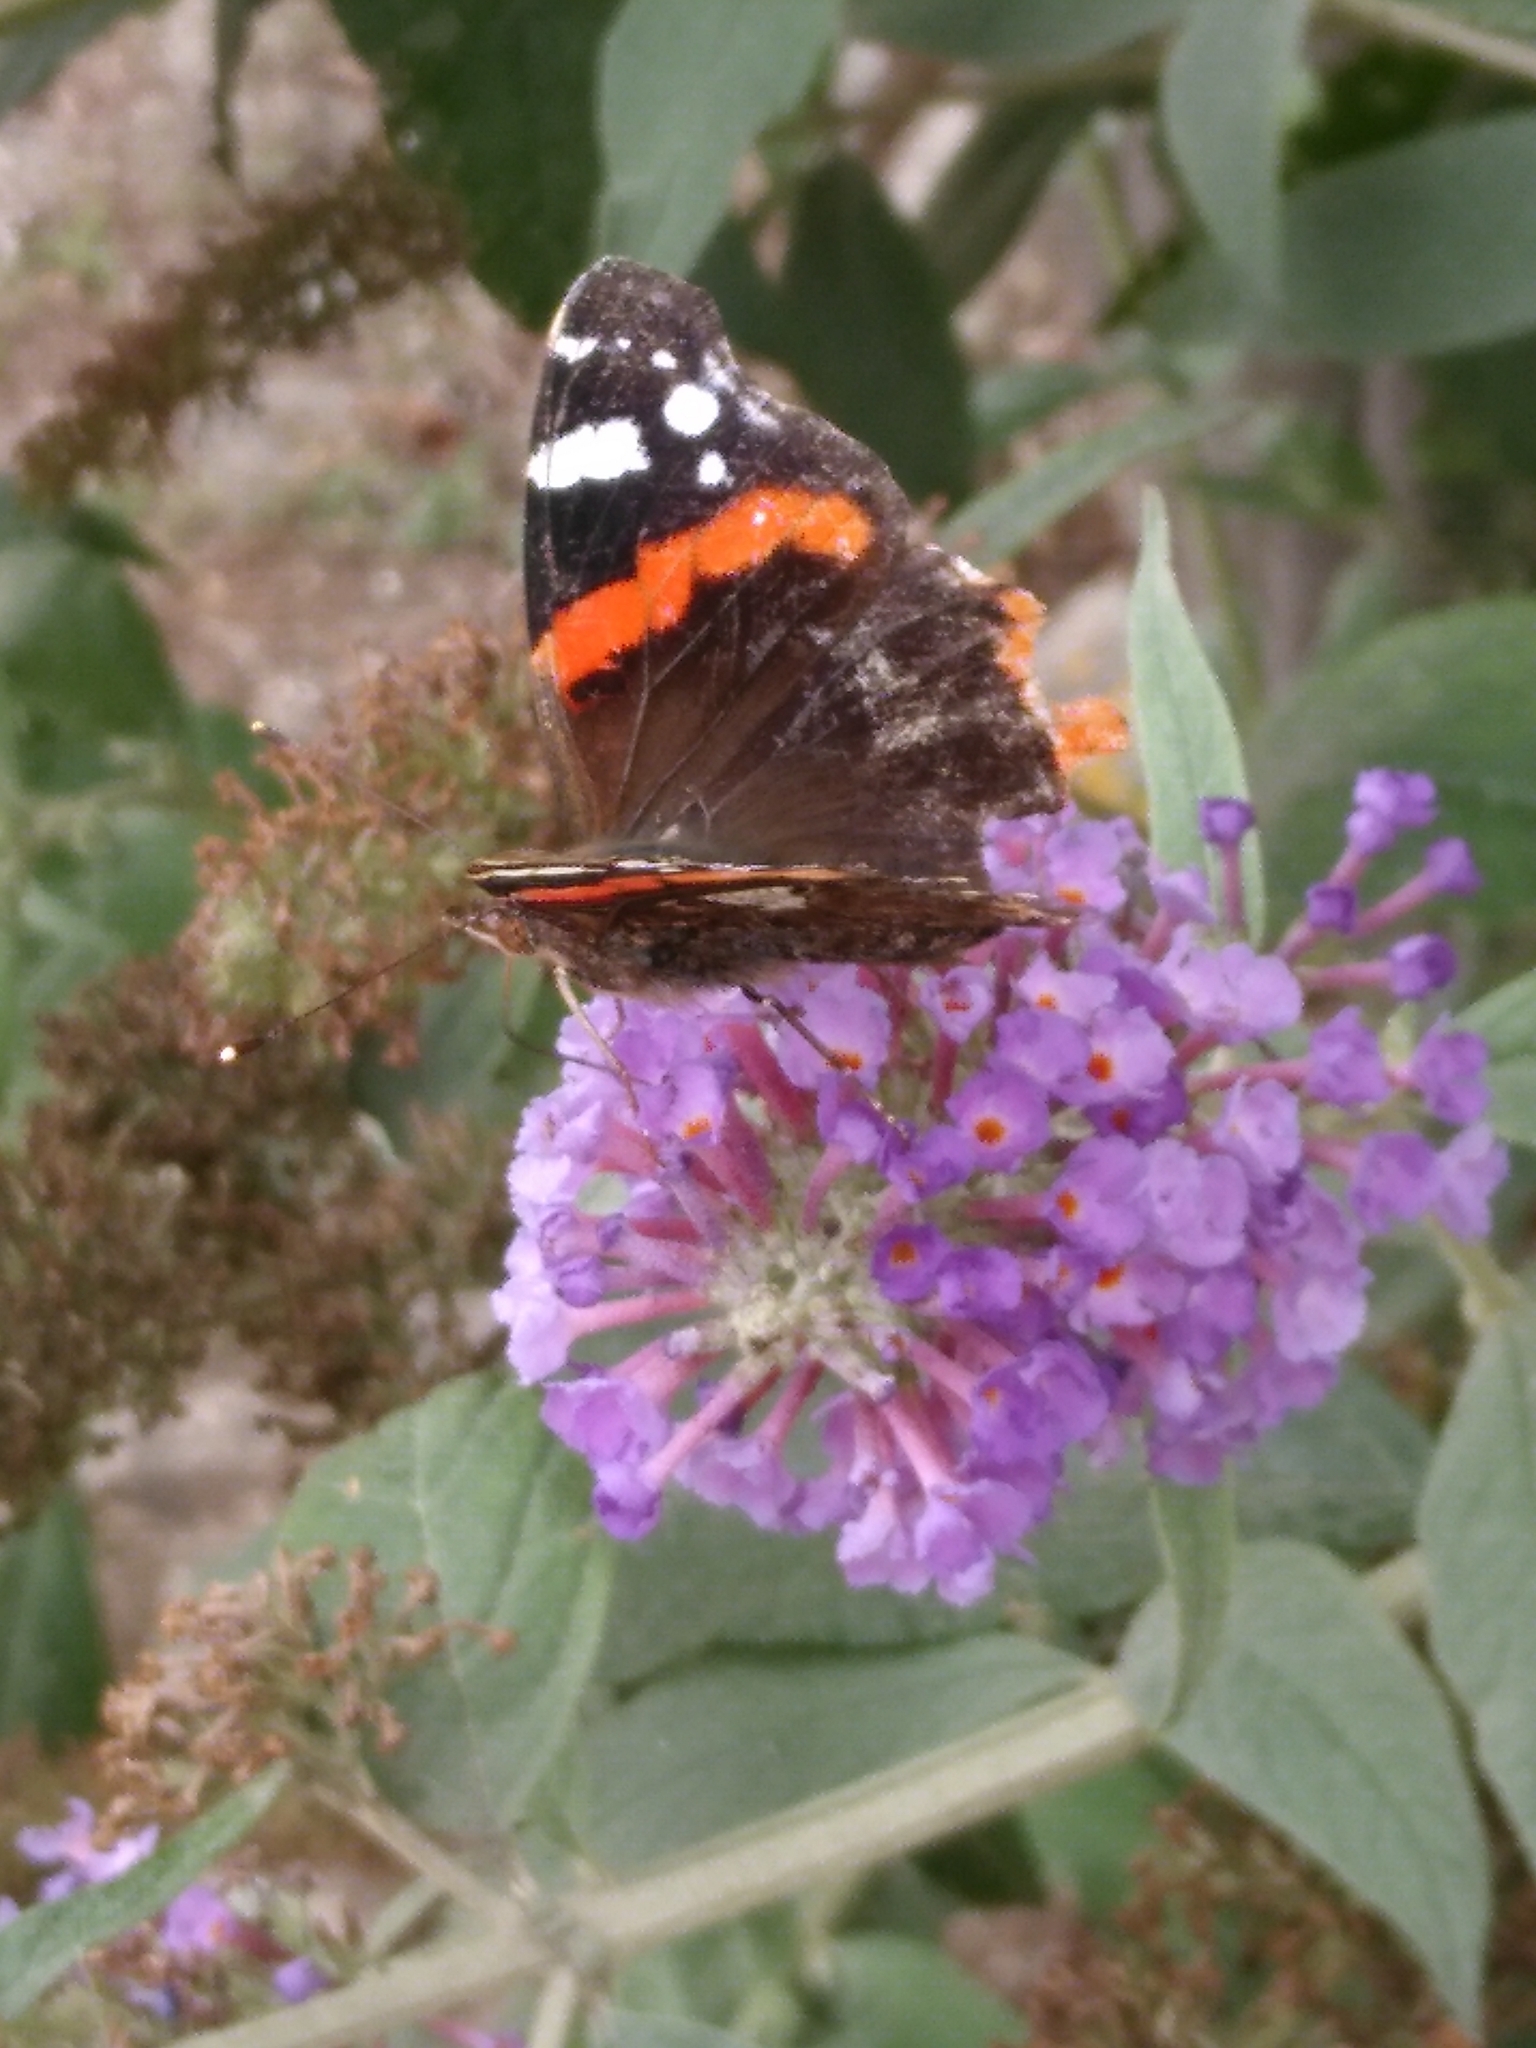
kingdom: Plantae
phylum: Tracheophyta
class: Magnoliopsida
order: Lamiales
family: Scrophulariaceae
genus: Buddleja
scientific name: Buddleja davidii
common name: Butterfly-bush
